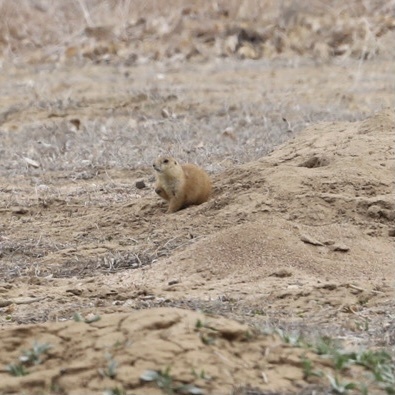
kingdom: Animalia
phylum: Chordata
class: Mammalia
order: Rodentia
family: Sciuridae
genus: Cynomys
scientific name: Cynomys ludovicianus
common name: Black-tailed prairie dog
